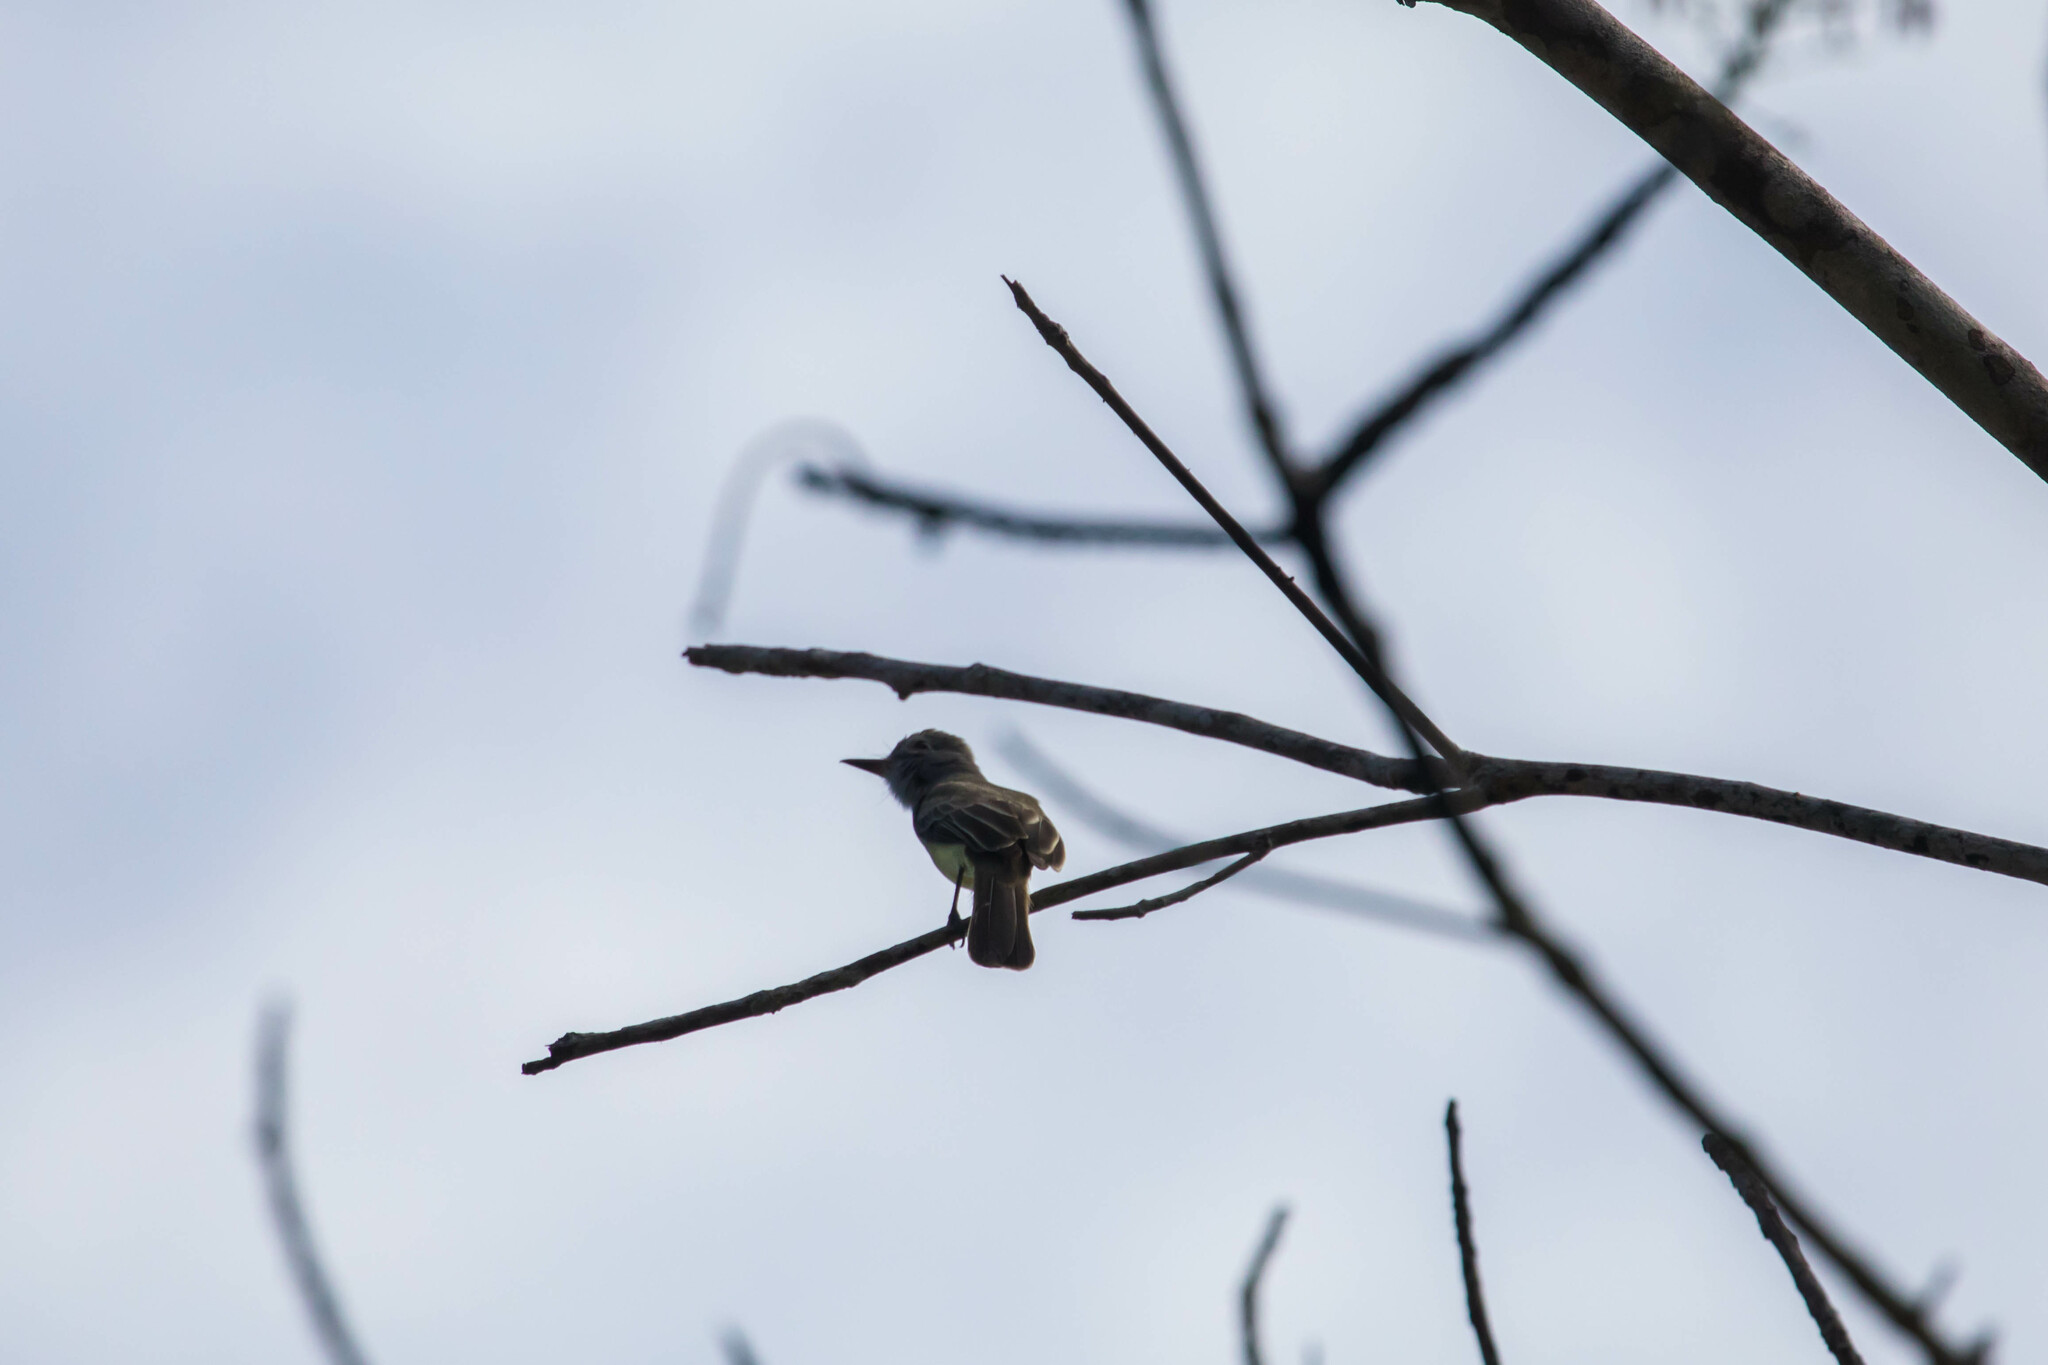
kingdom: Animalia
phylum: Chordata
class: Aves
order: Passeriformes
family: Tyrannidae
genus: Myiarchus
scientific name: Myiarchus panamensis
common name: Panama flycatcher
